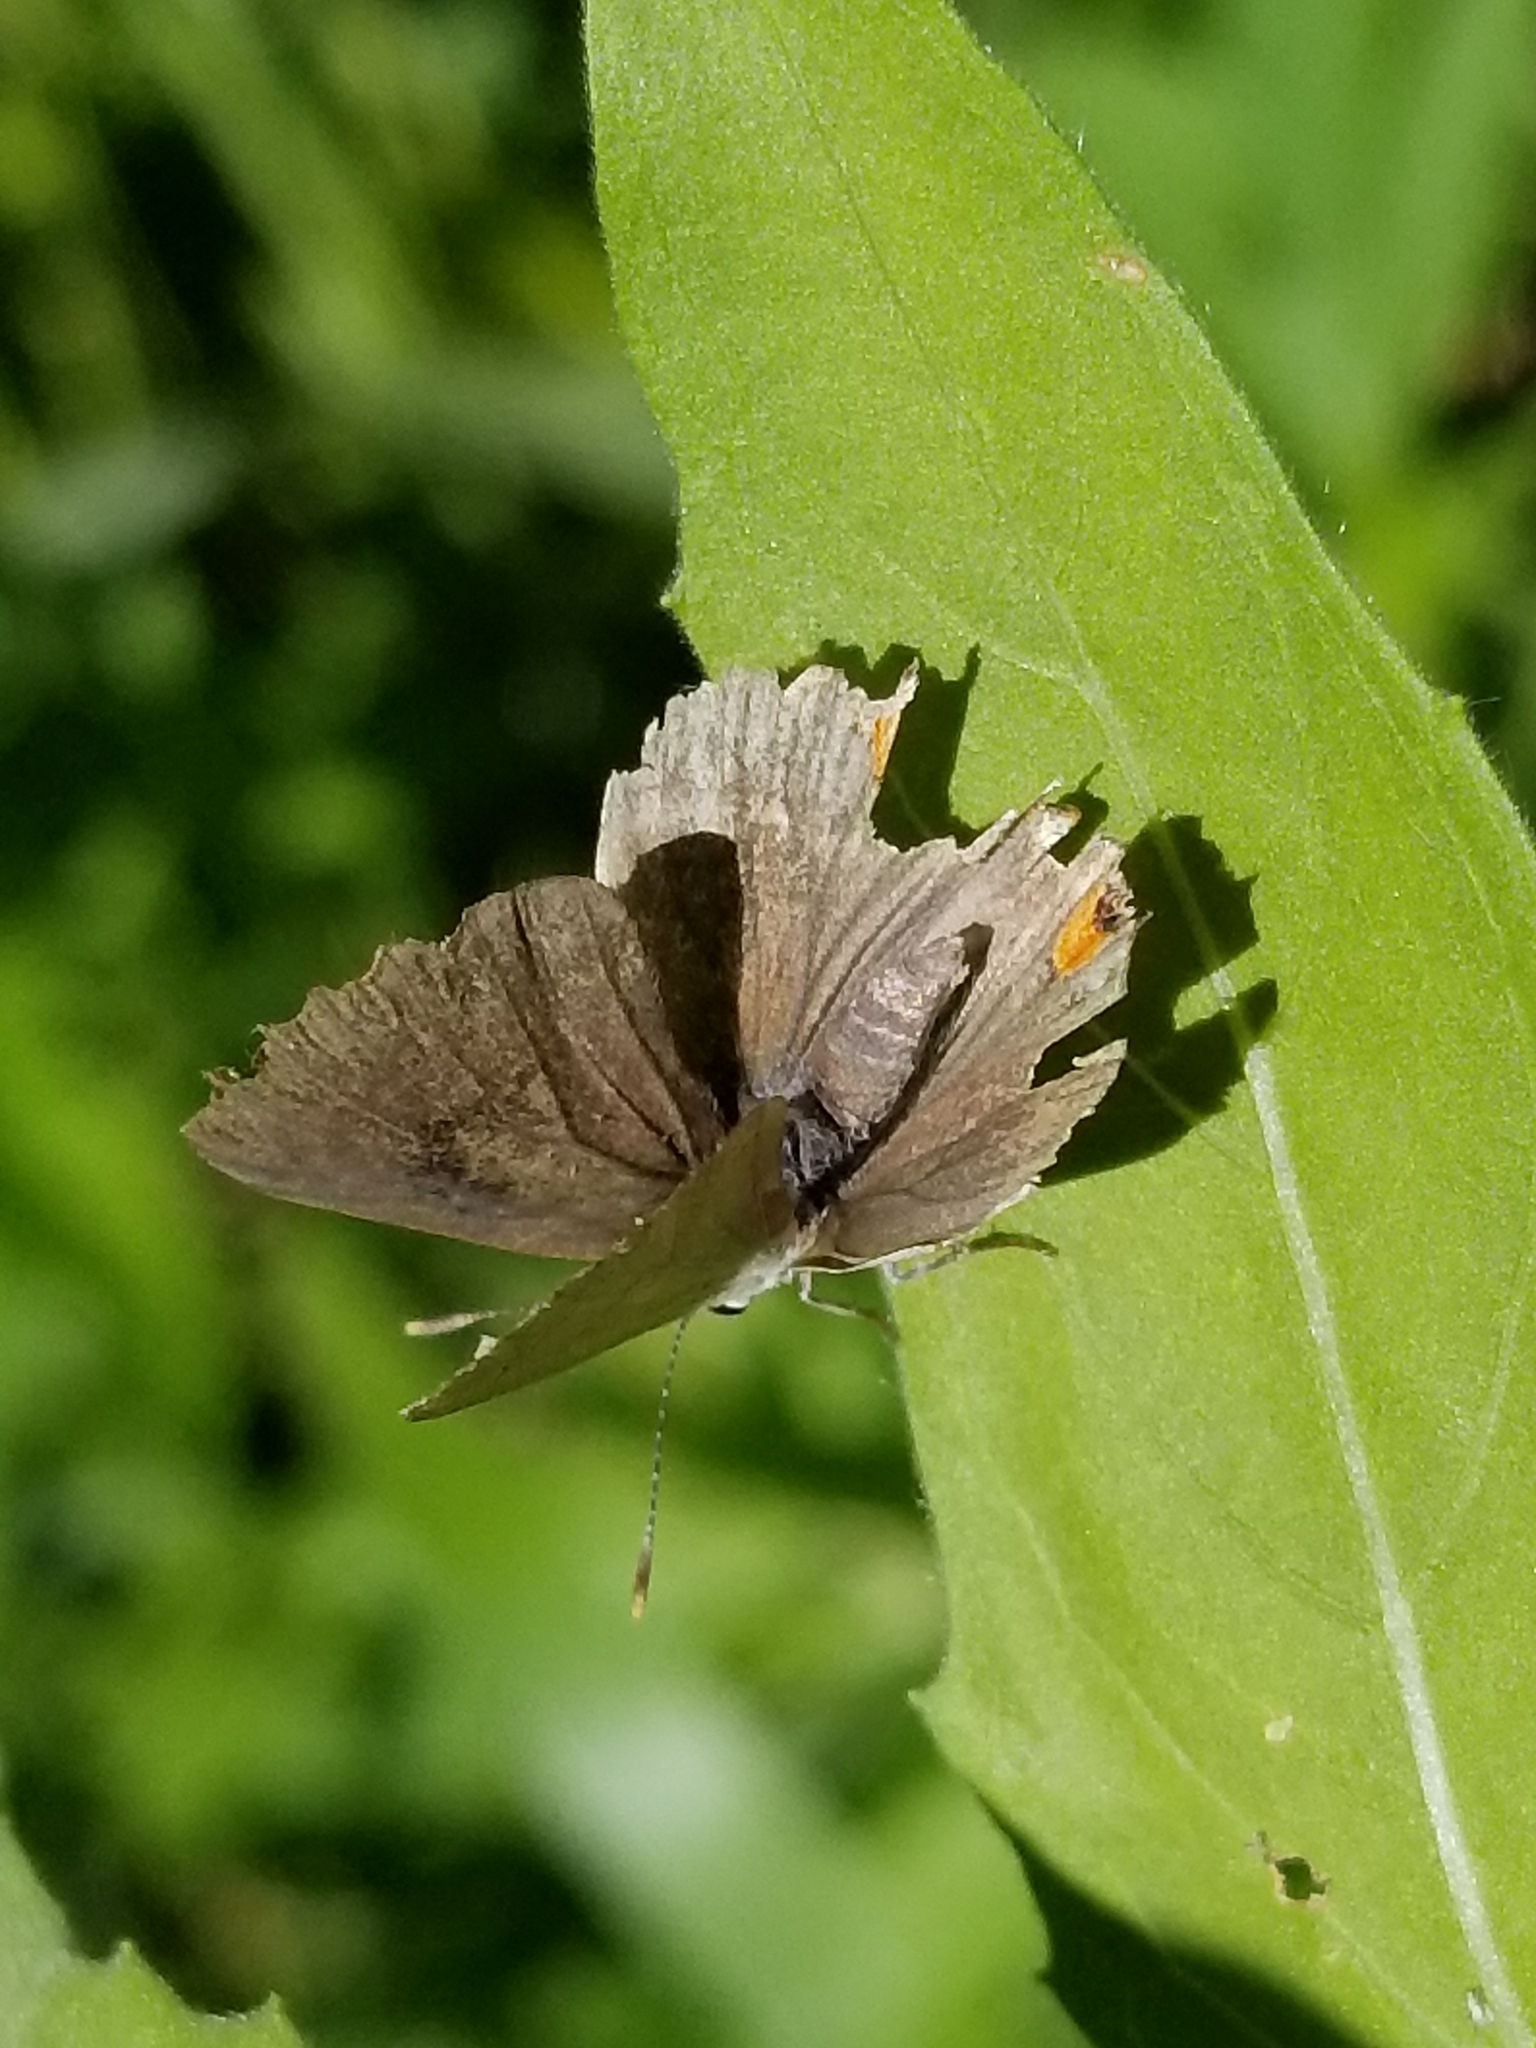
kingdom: Animalia
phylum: Arthropoda
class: Insecta
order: Lepidoptera
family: Lycaenidae
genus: Strymon
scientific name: Strymon melinus
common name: Gray hairstreak
